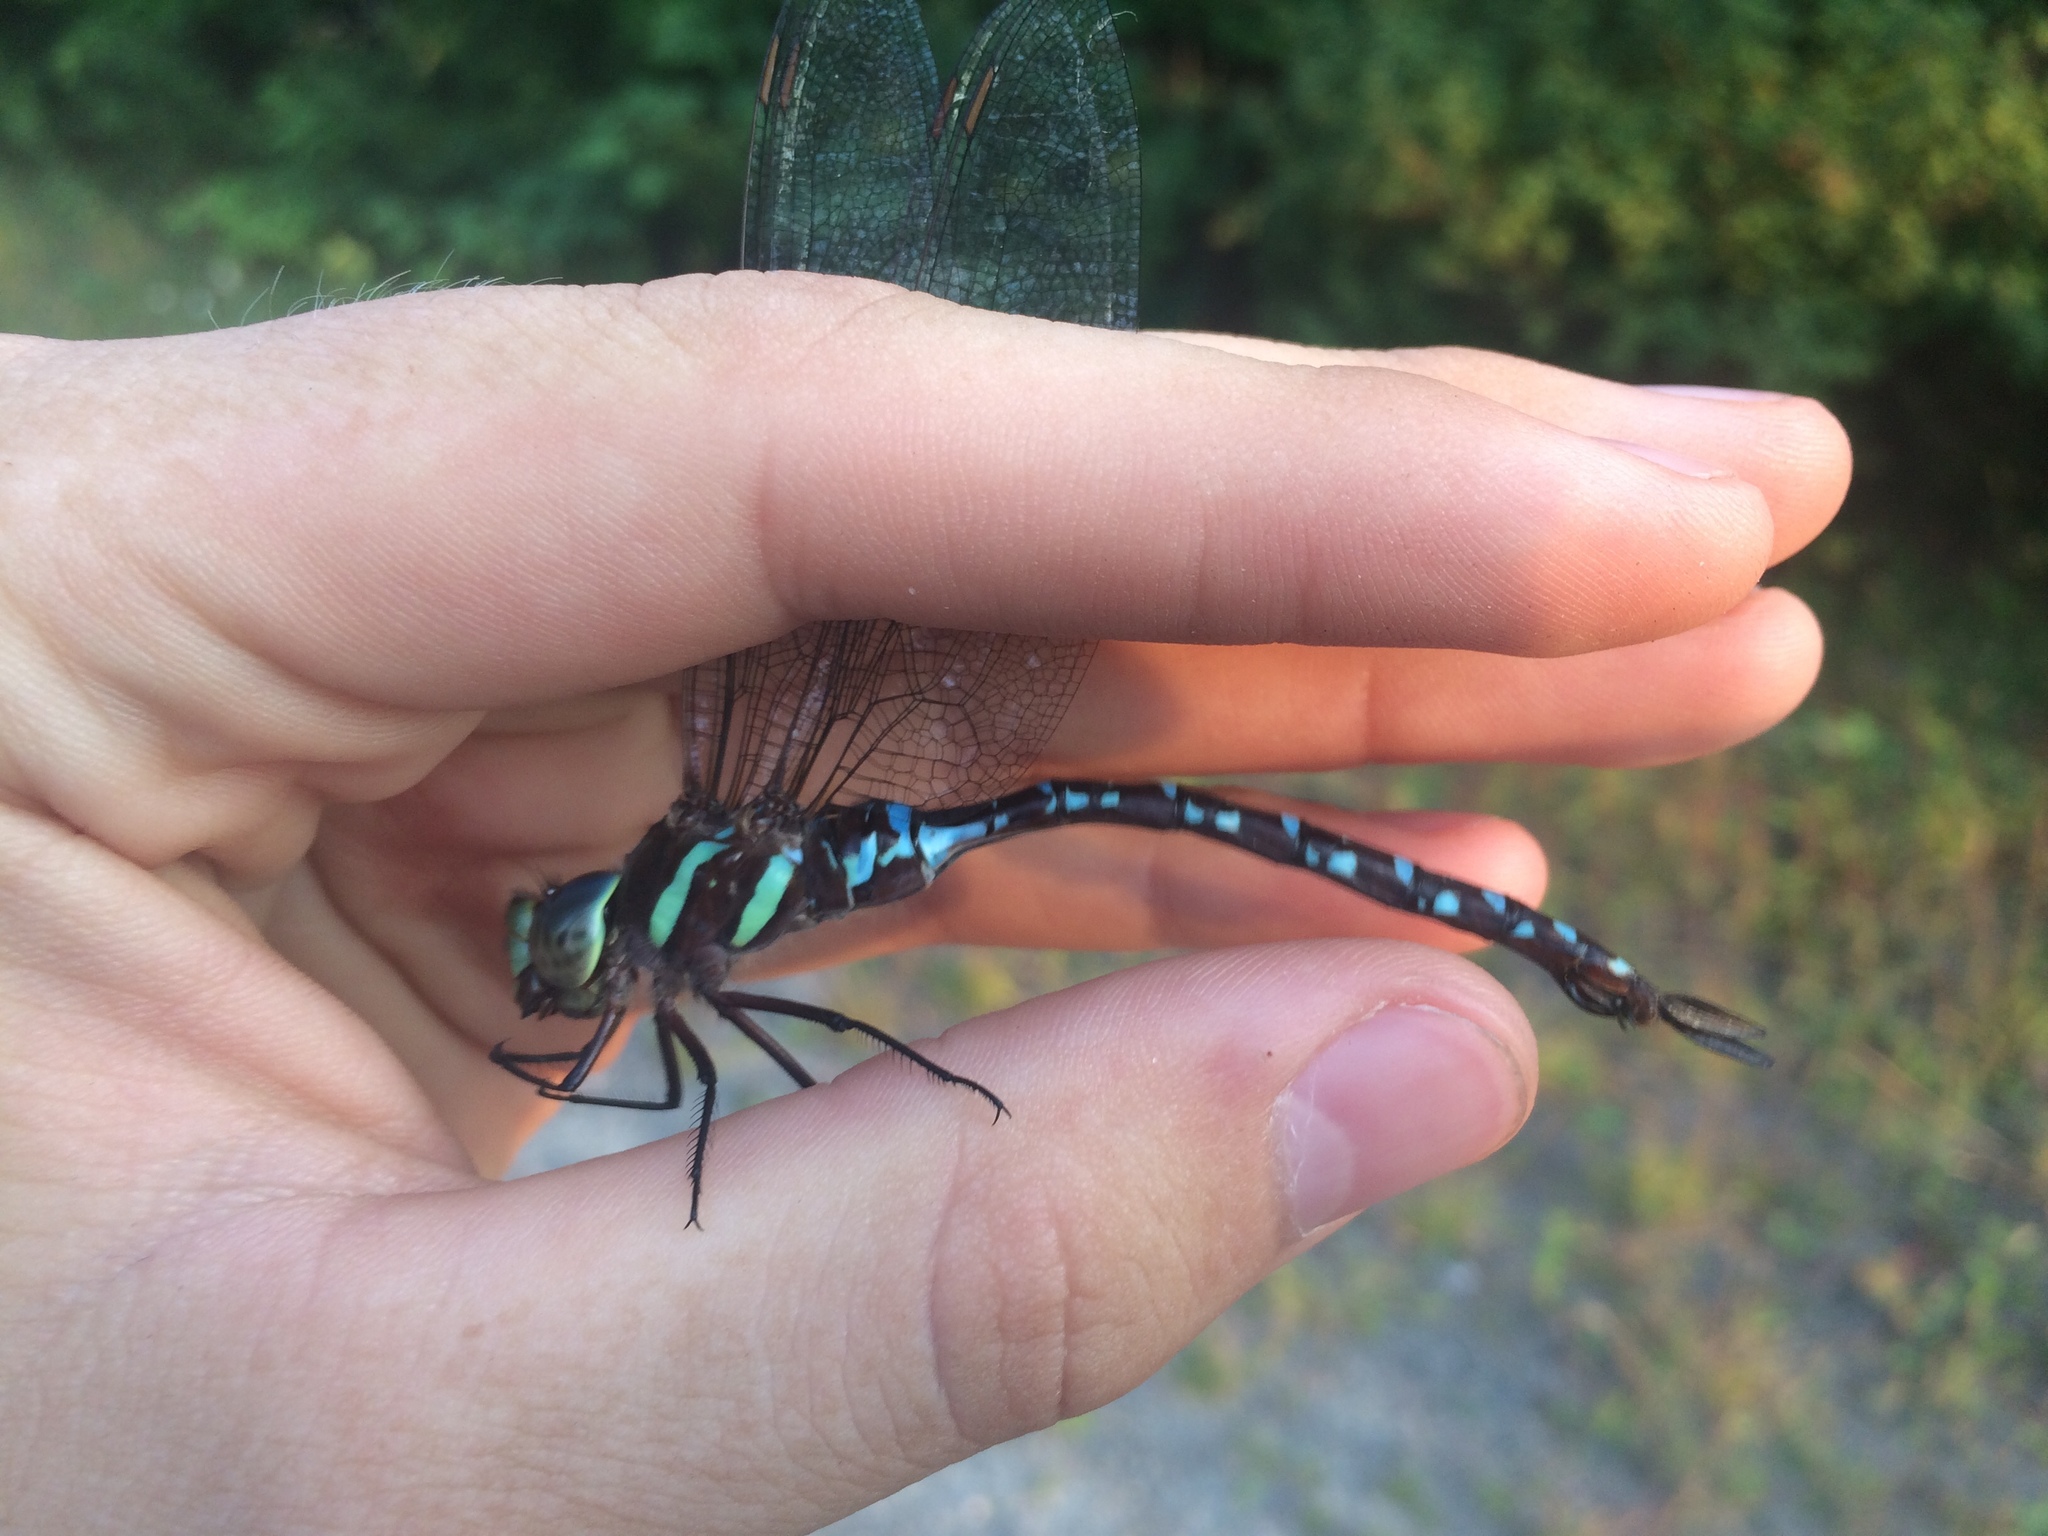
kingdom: Animalia
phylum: Arthropoda
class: Insecta
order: Odonata
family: Aeshnidae
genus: Aeshna
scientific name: Aeshna tuberculifera
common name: Aeschne à tubercules
